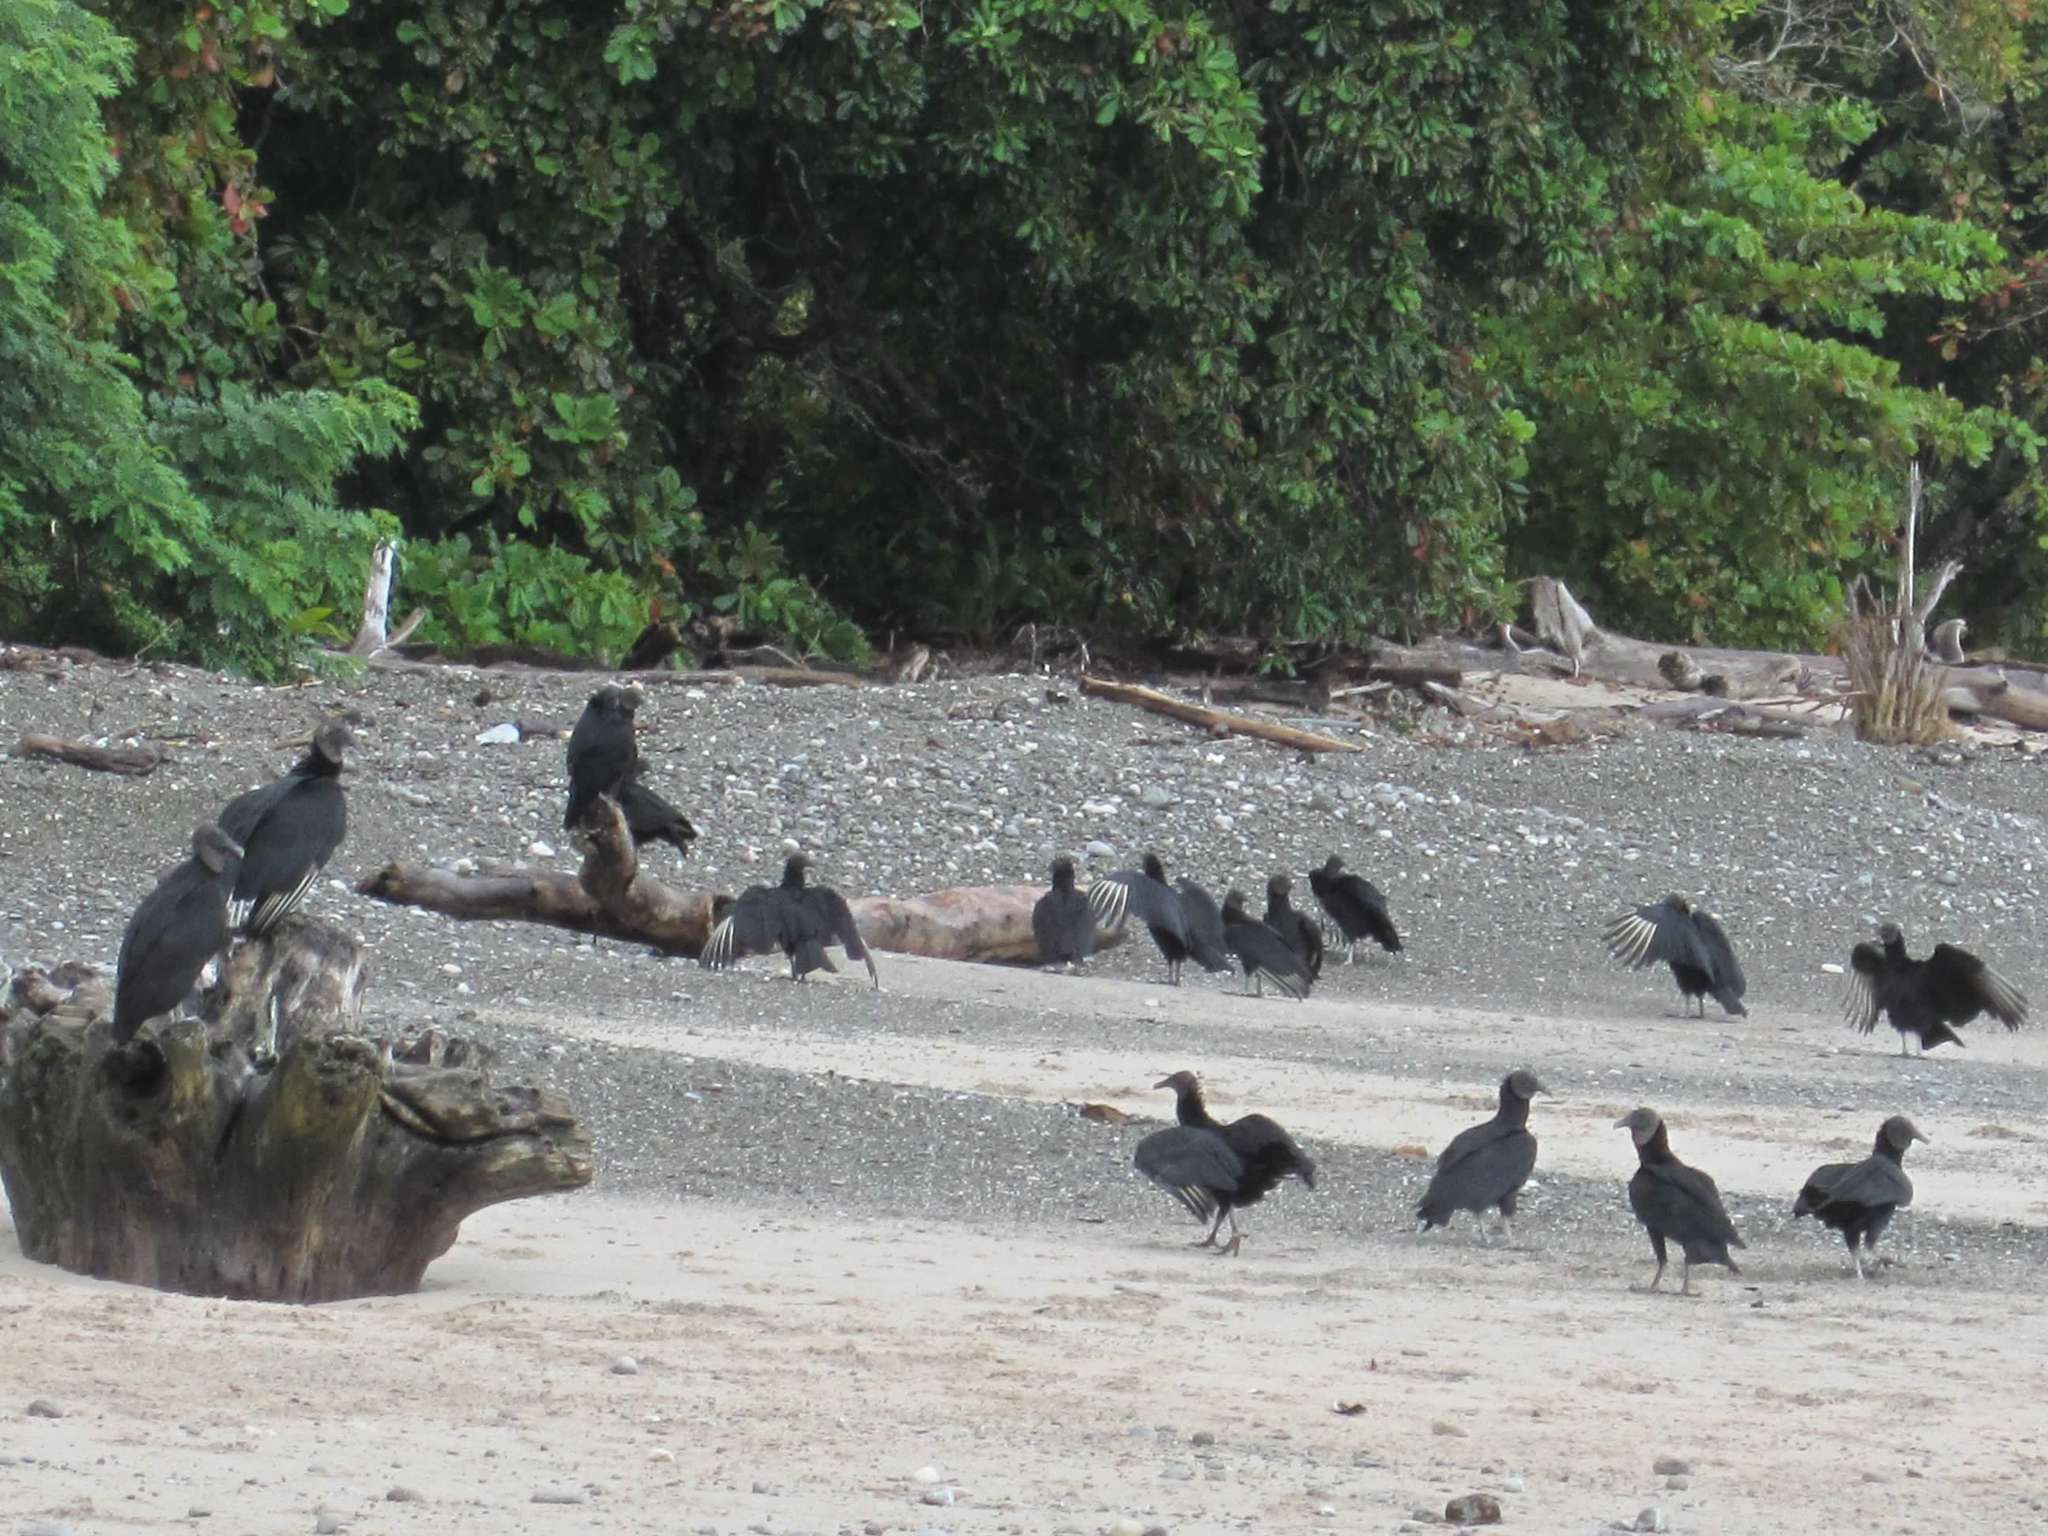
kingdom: Animalia
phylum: Chordata
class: Aves
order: Accipitriformes
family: Cathartidae
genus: Coragyps
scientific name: Coragyps atratus
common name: Black vulture
